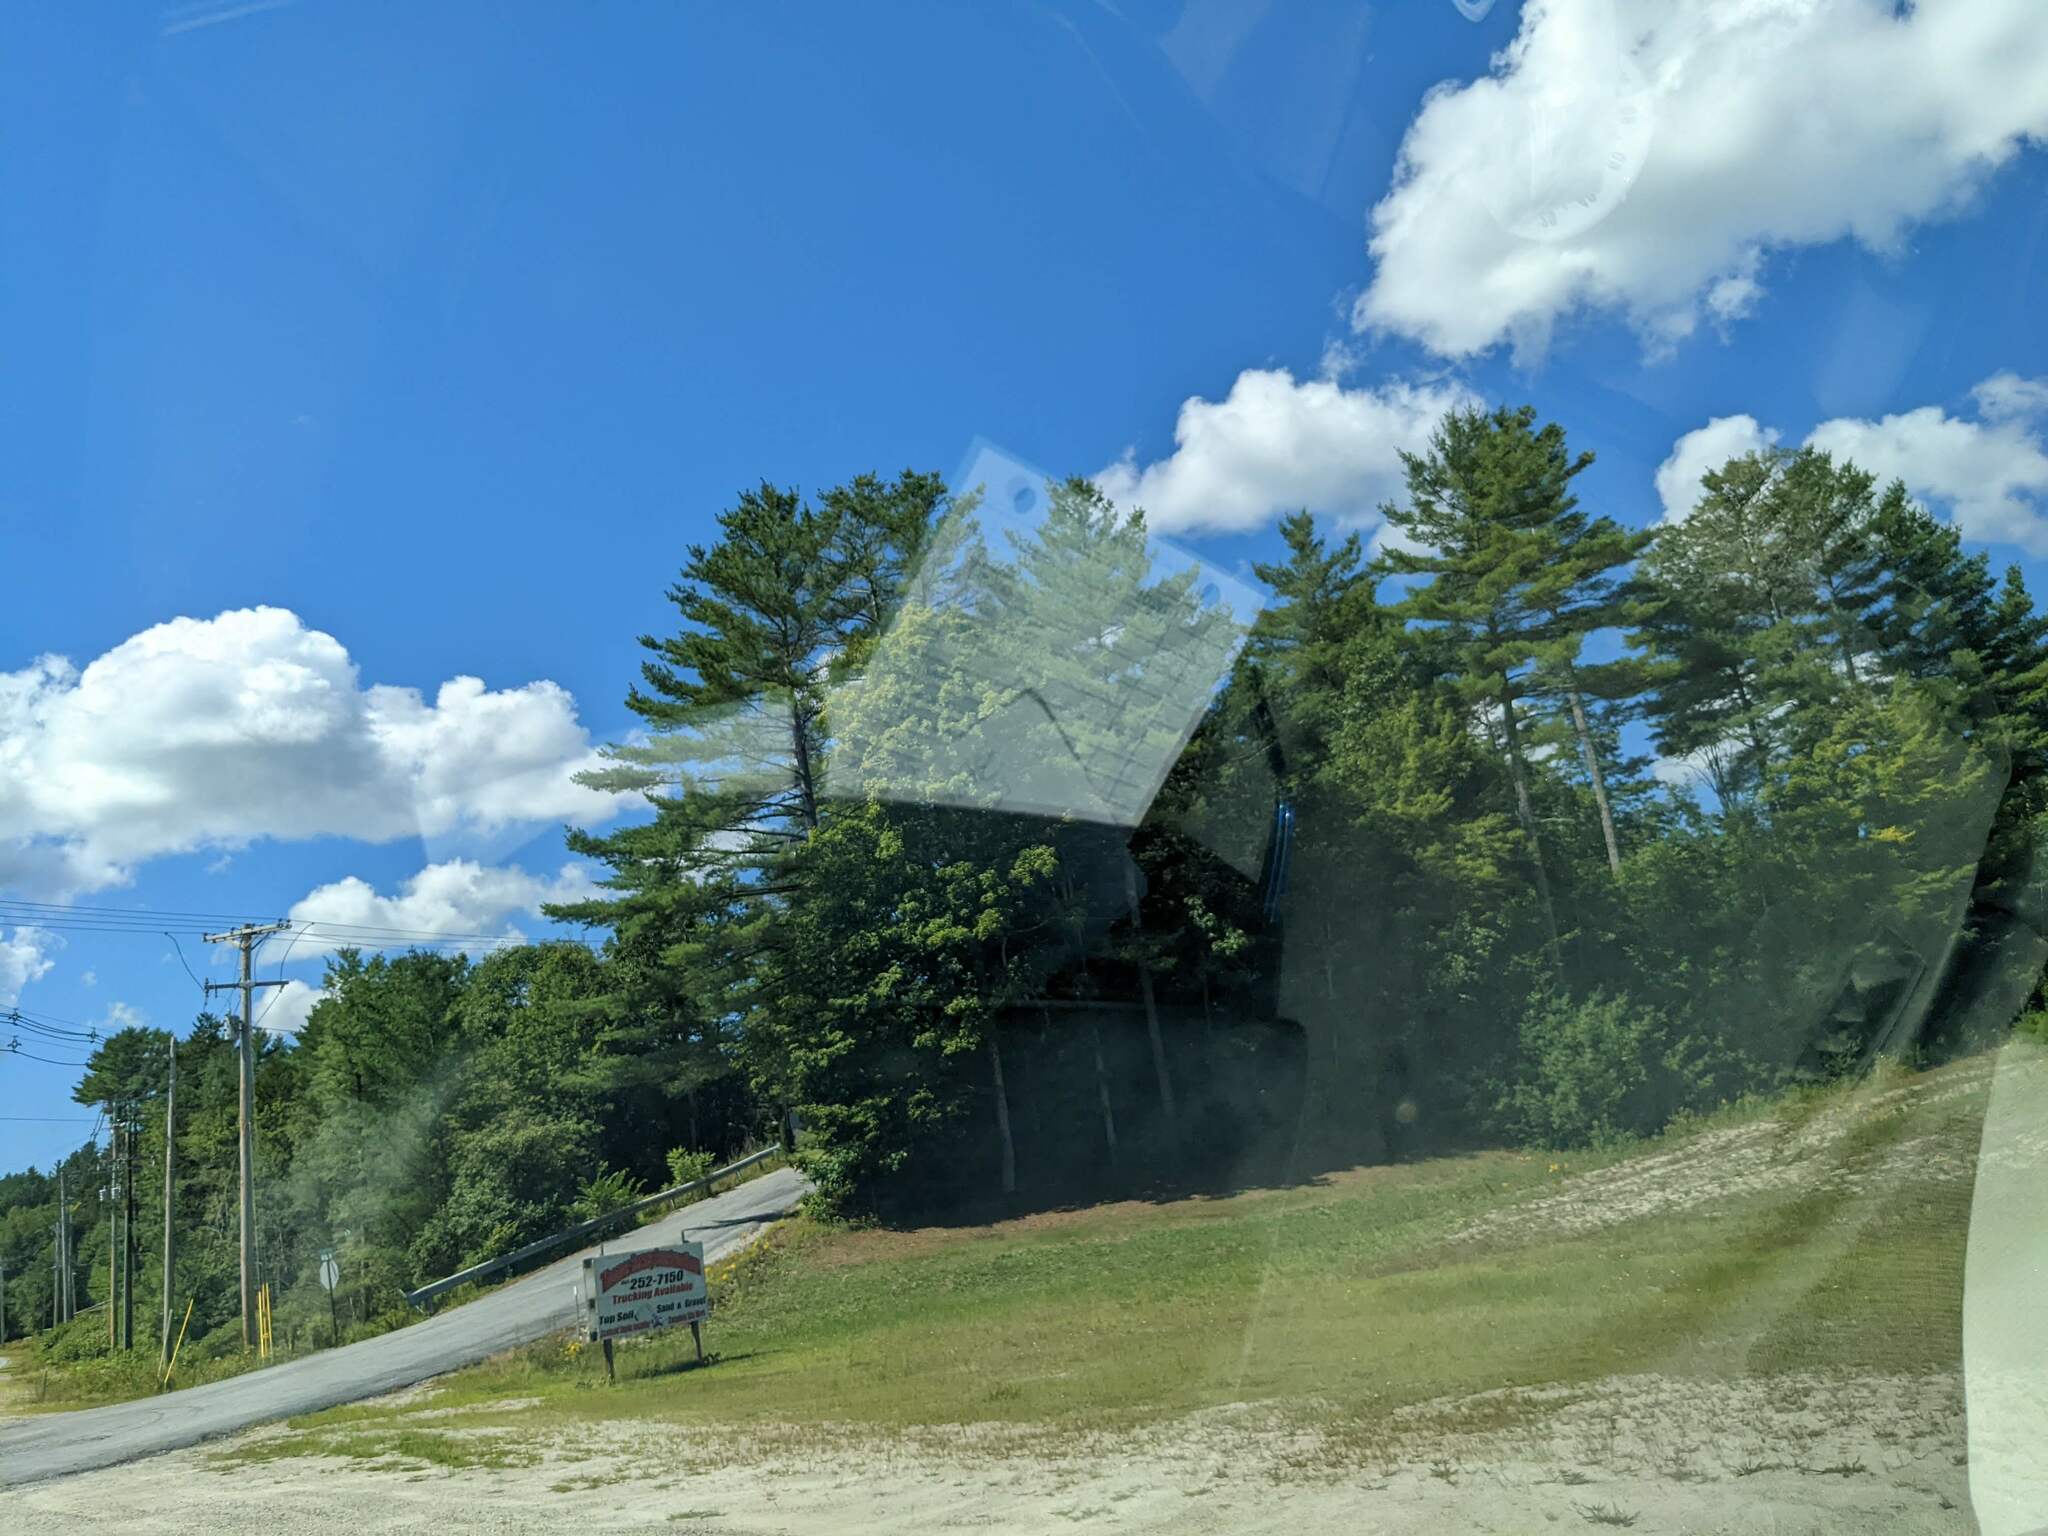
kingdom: Plantae
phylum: Tracheophyta
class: Pinopsida
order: Pinales
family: Pinaceae
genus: Pinus
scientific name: Pinus strobus
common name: Weymouth pine
